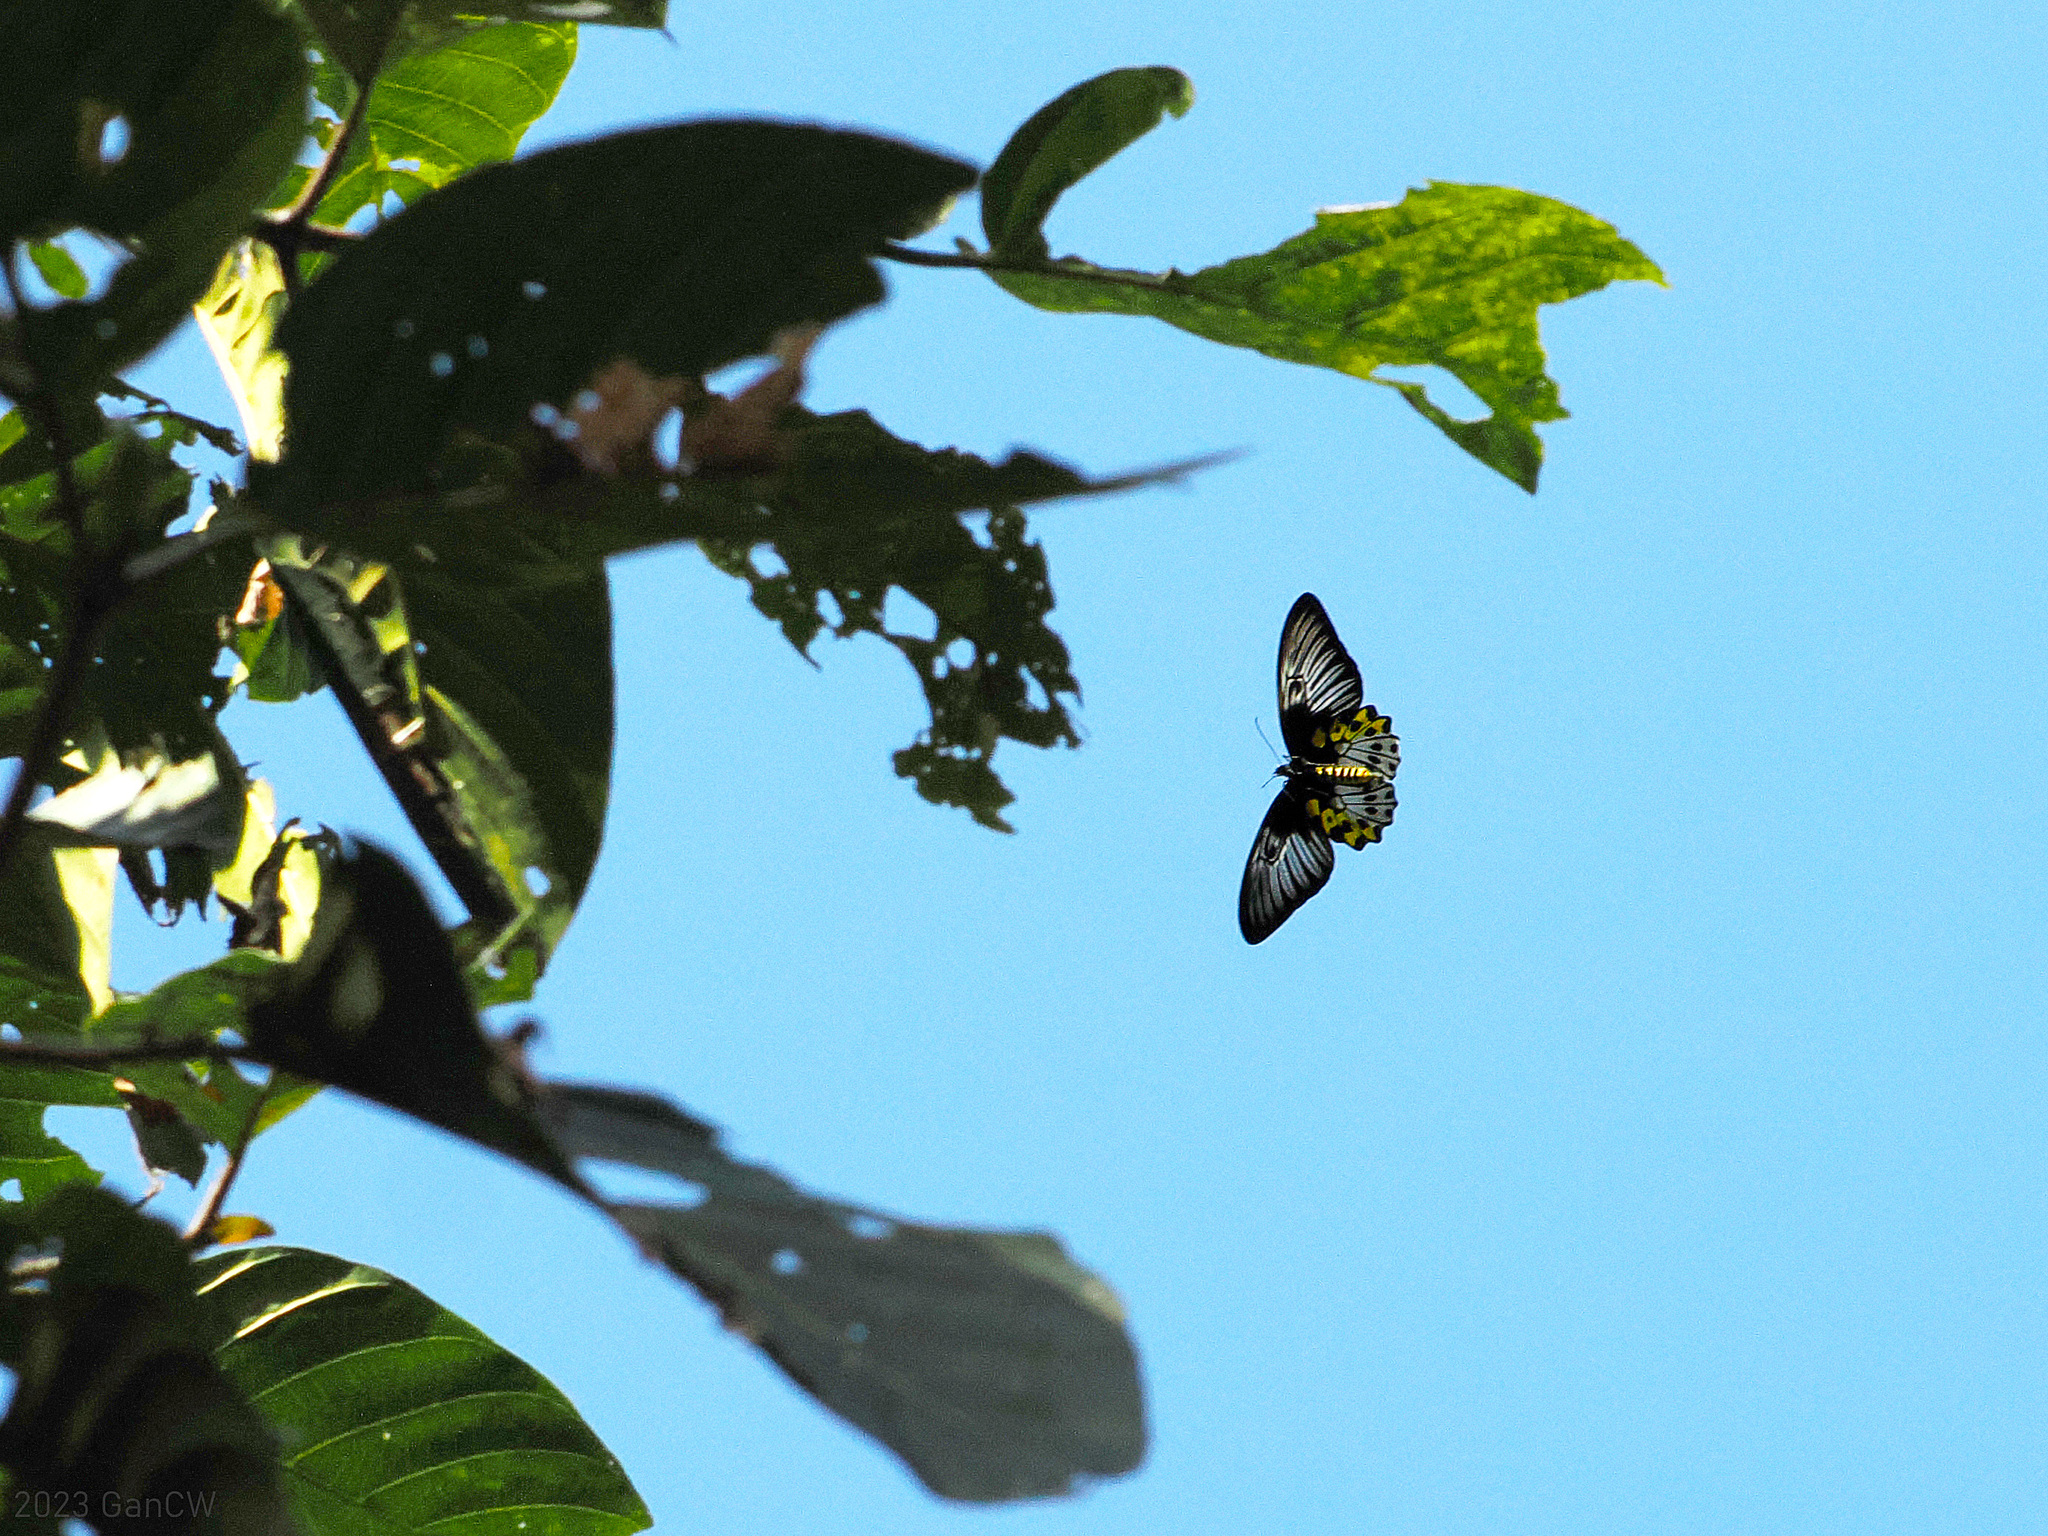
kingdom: Animalia
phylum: Arthropoda
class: Insecta
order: Lepidoptera
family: Papilionidae
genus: Troides
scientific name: Troides hypolitus
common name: Rippon’s birdwing
